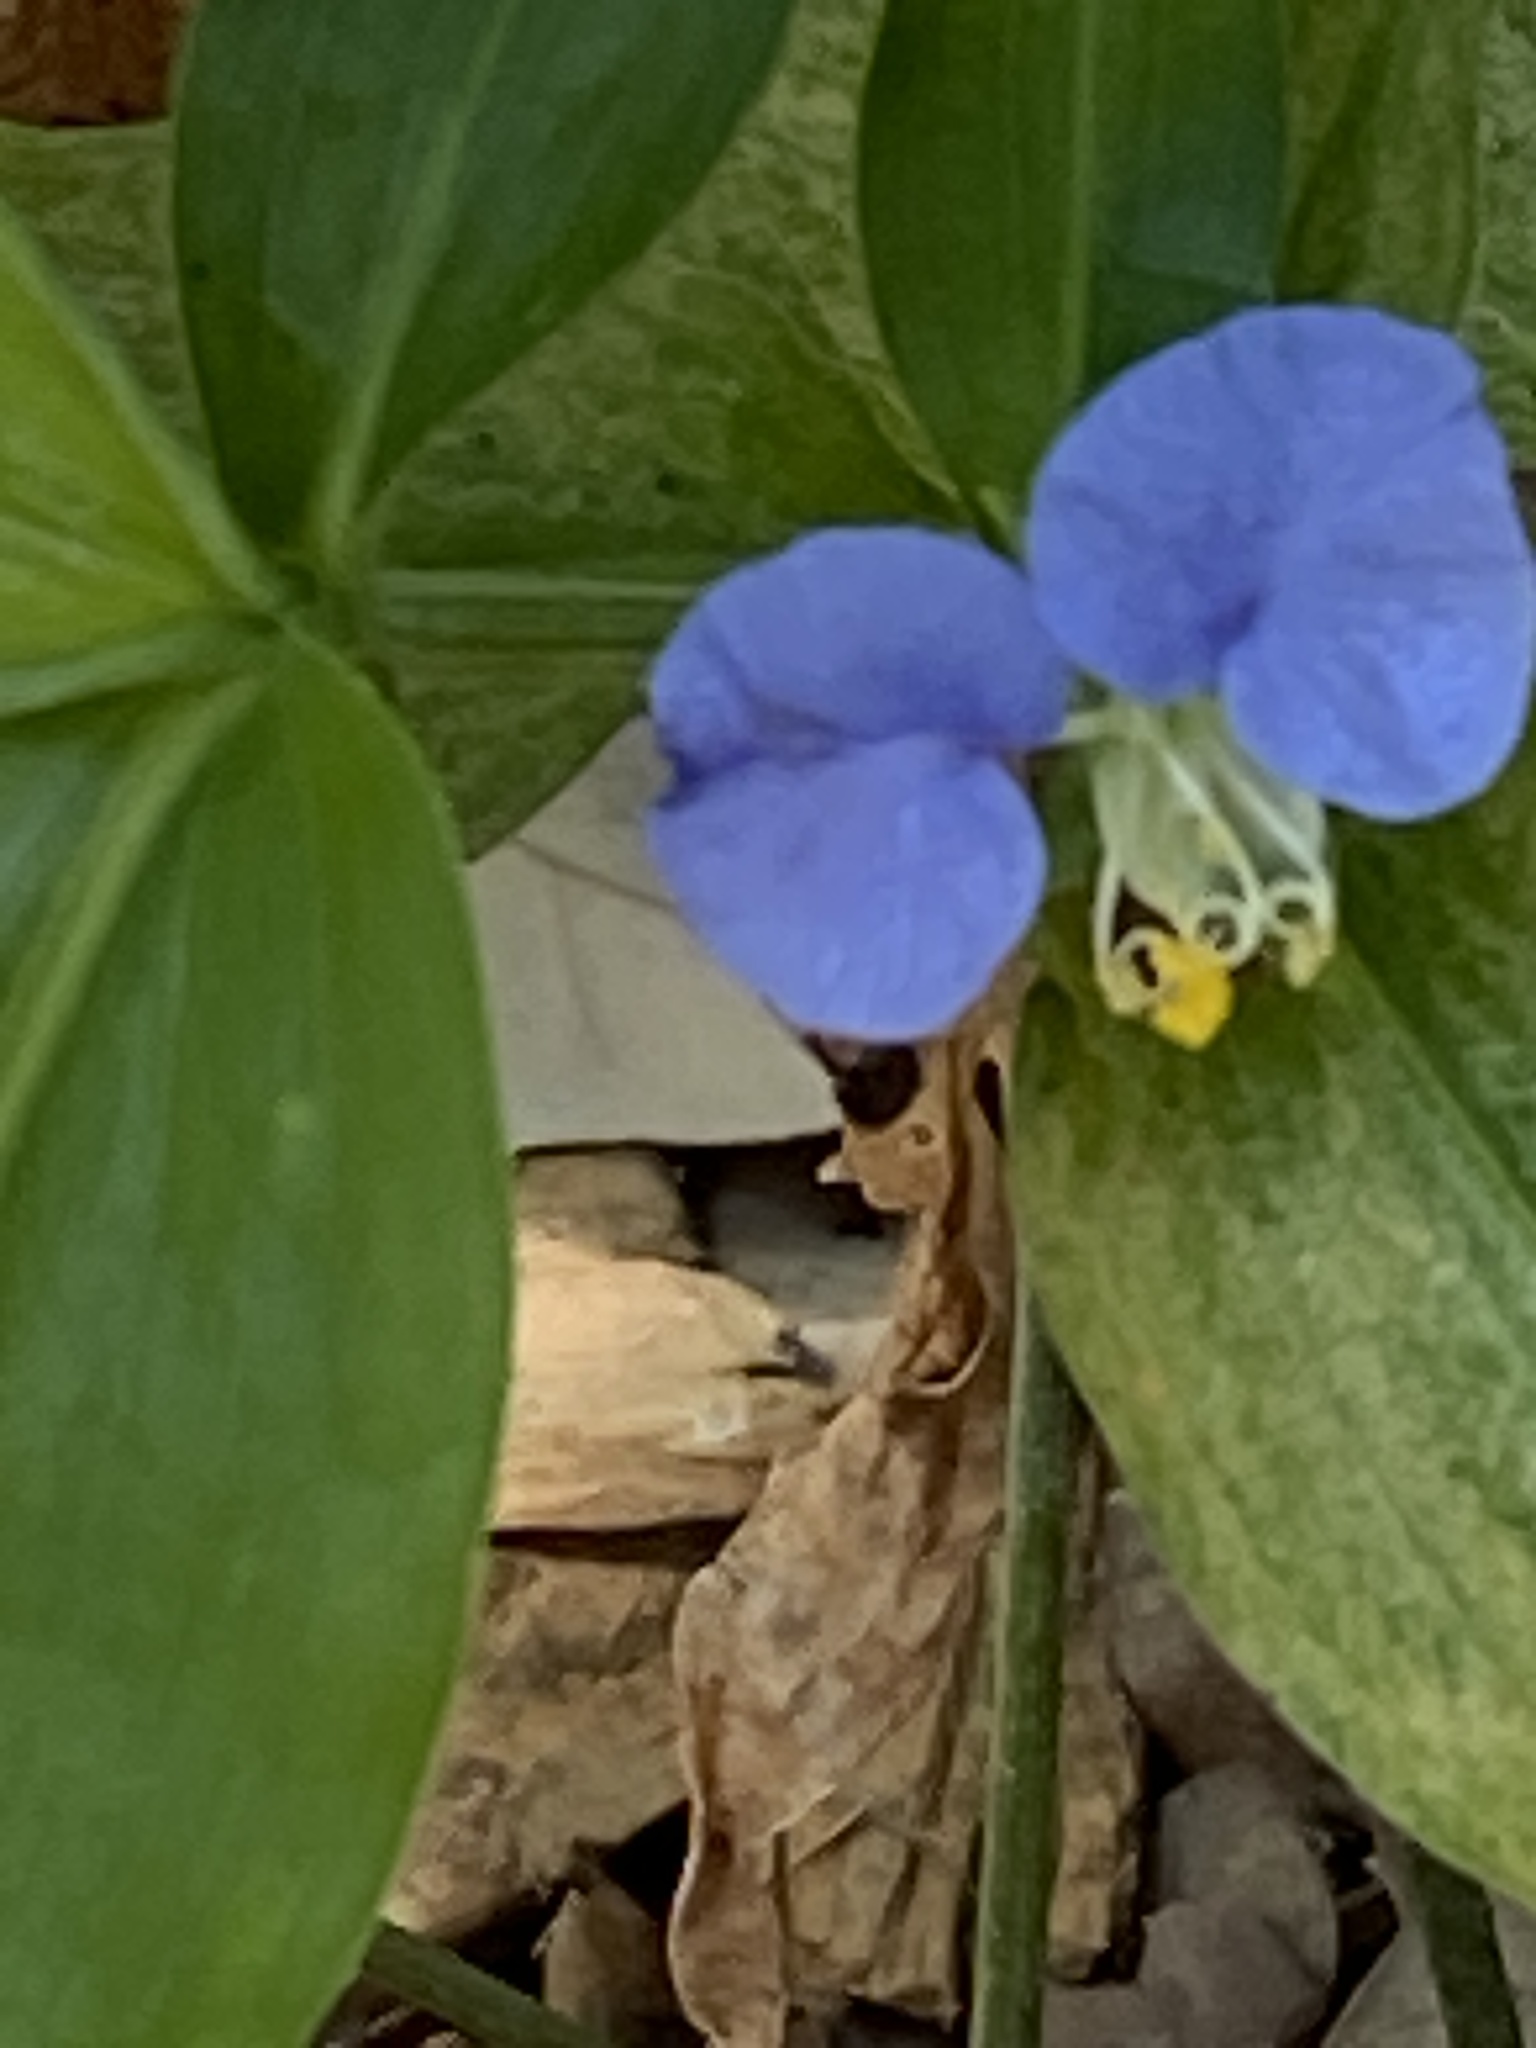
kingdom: Plantae
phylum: Tracheophyta
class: Liliopsida
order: Commelinales
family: Commelinaceae
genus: Commelina
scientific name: Commelina erecta
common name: Blousel blommetjie
